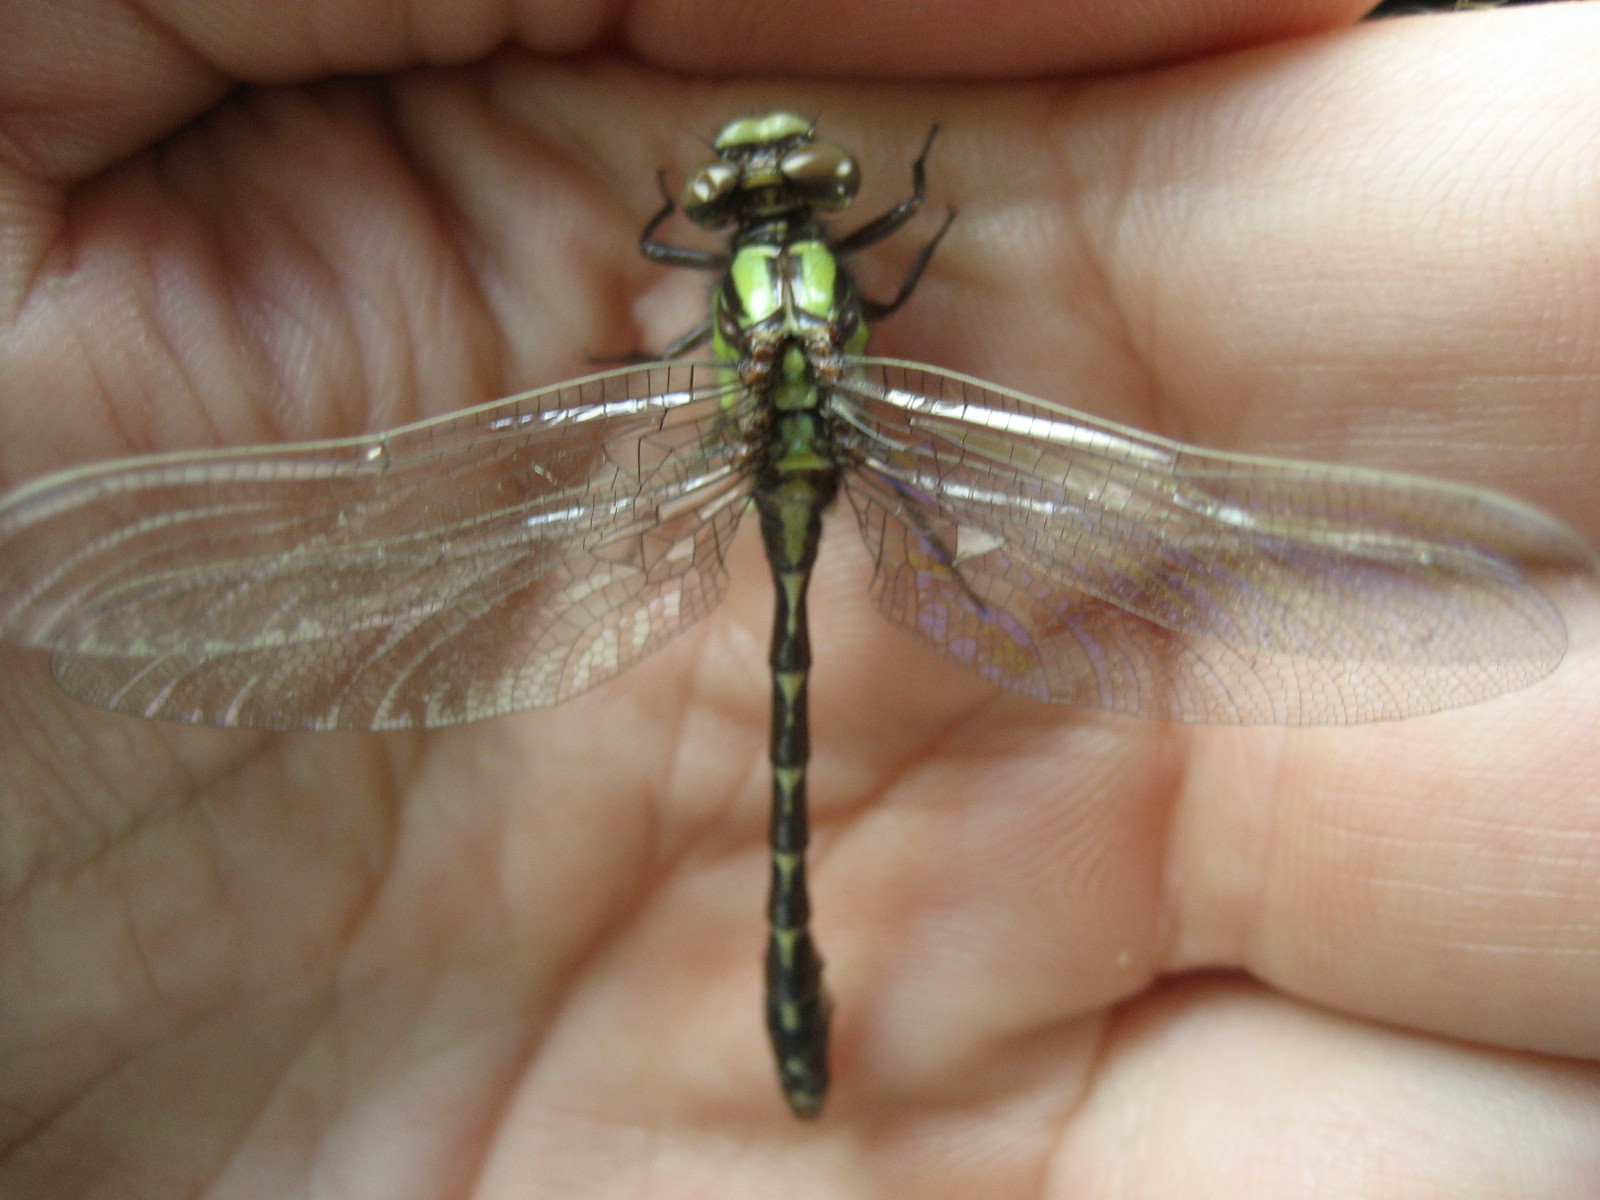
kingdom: Animalia
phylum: Arthropoda
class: Insecta
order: Odonata
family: Gomphidae
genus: Ophiogomphus
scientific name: Ophiogomphus colubrinus
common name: Boreal snaketail
